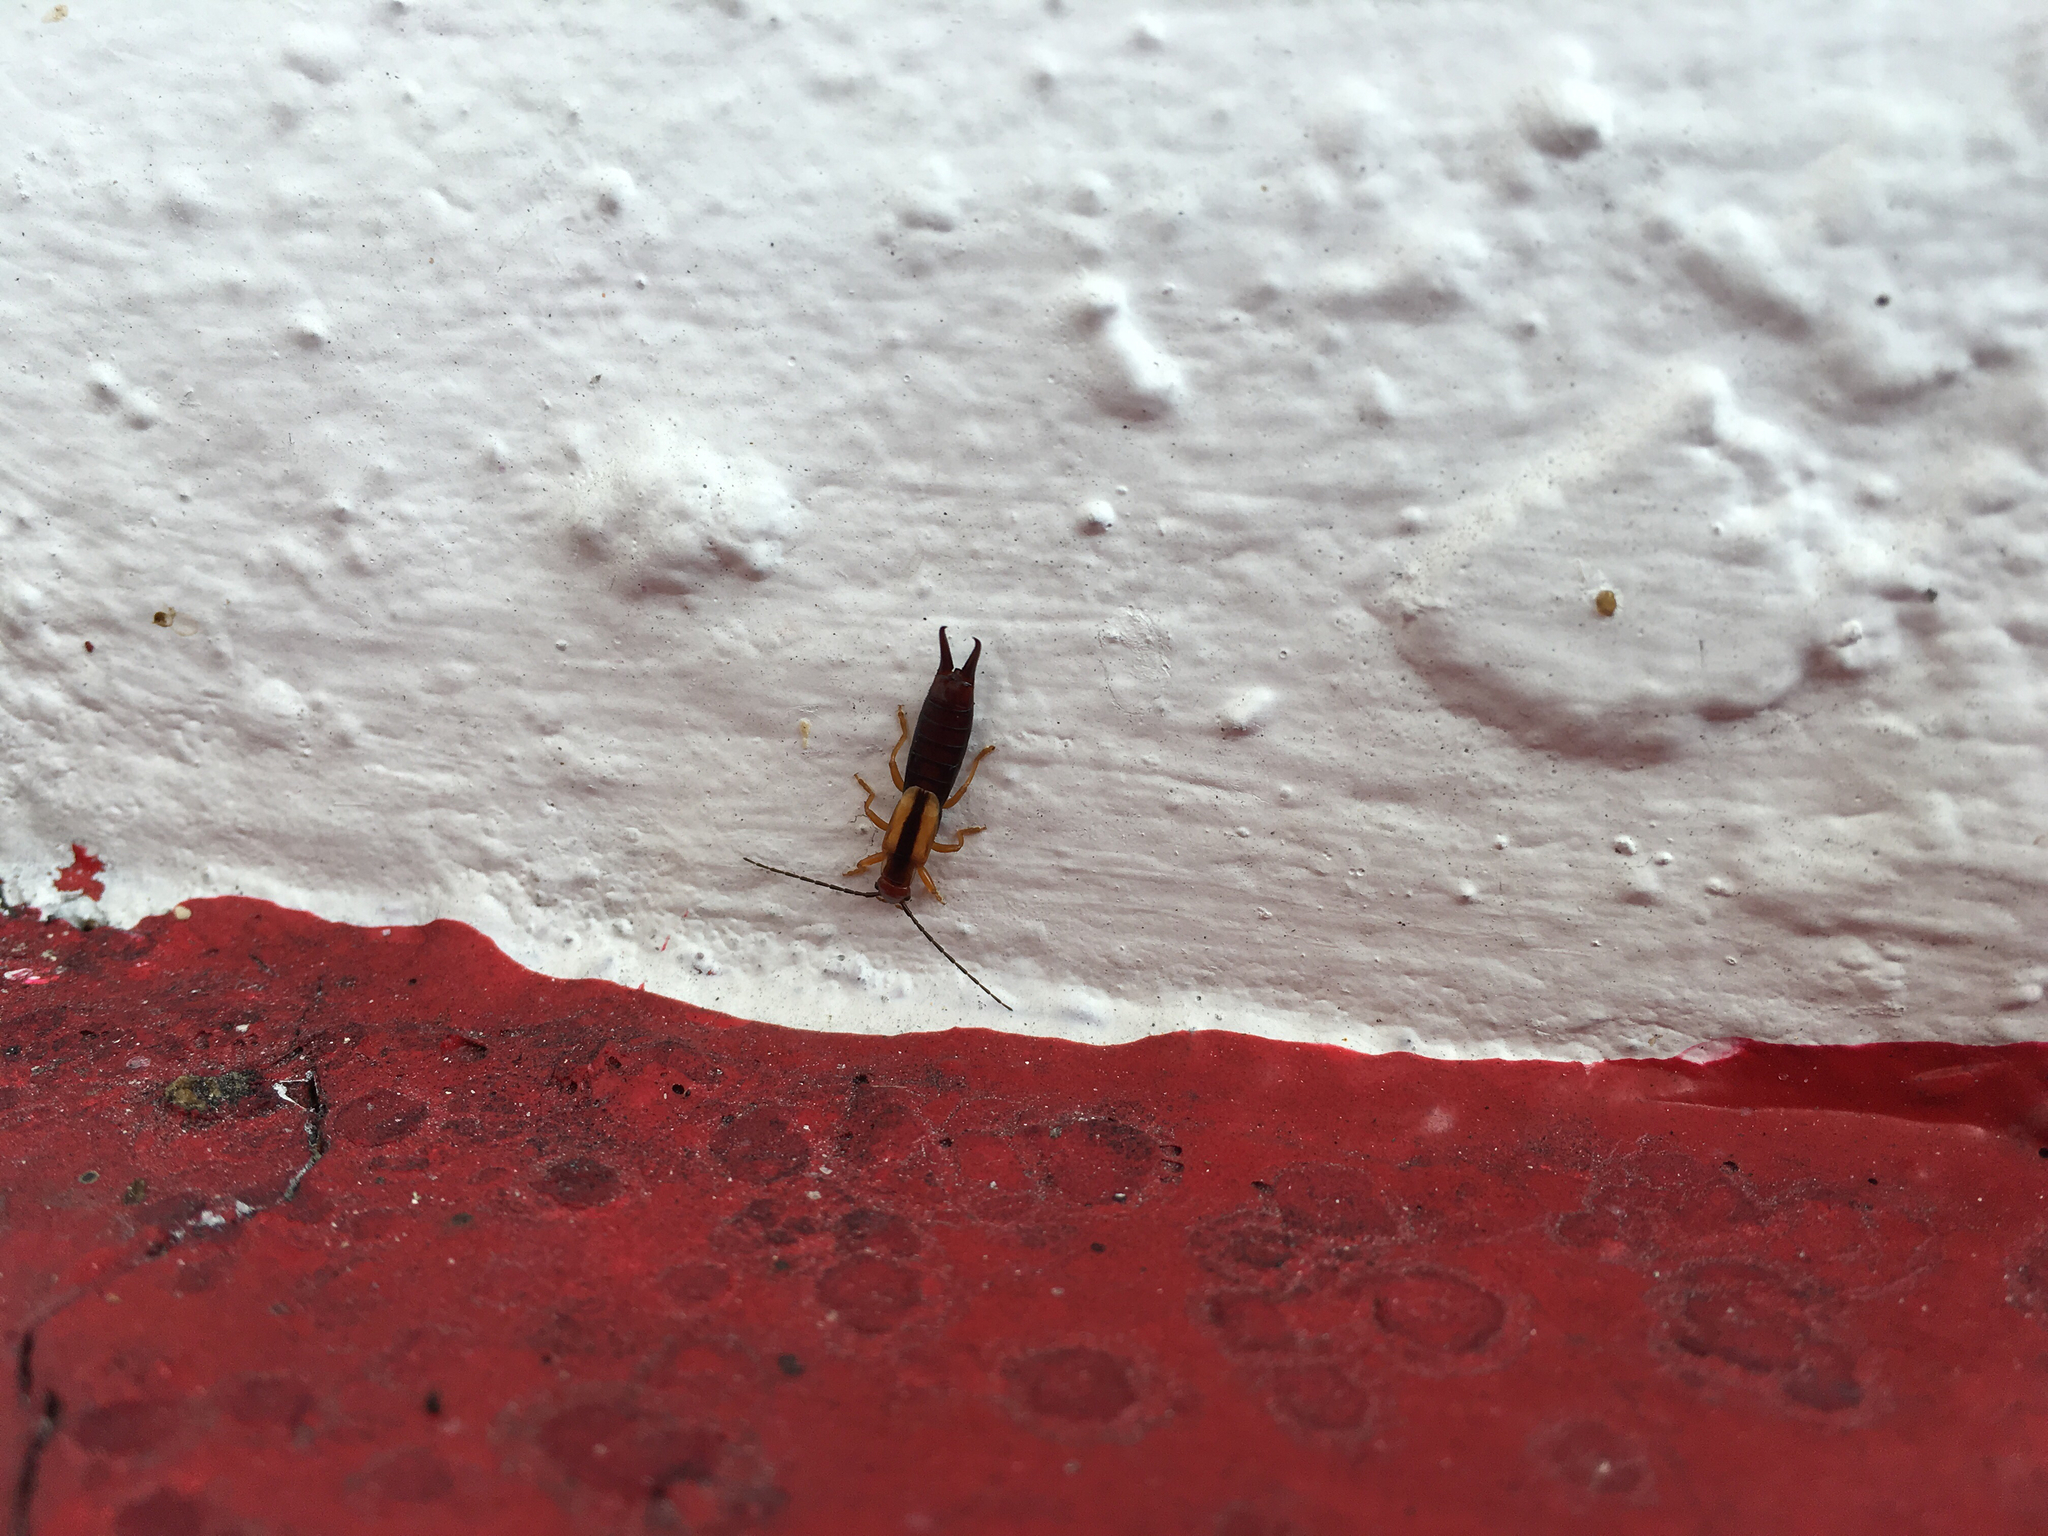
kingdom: Animalia
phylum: Arthropoda
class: Insecta
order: Dermaptera
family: Forficulidae
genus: Doru
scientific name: Doru taeniatum
